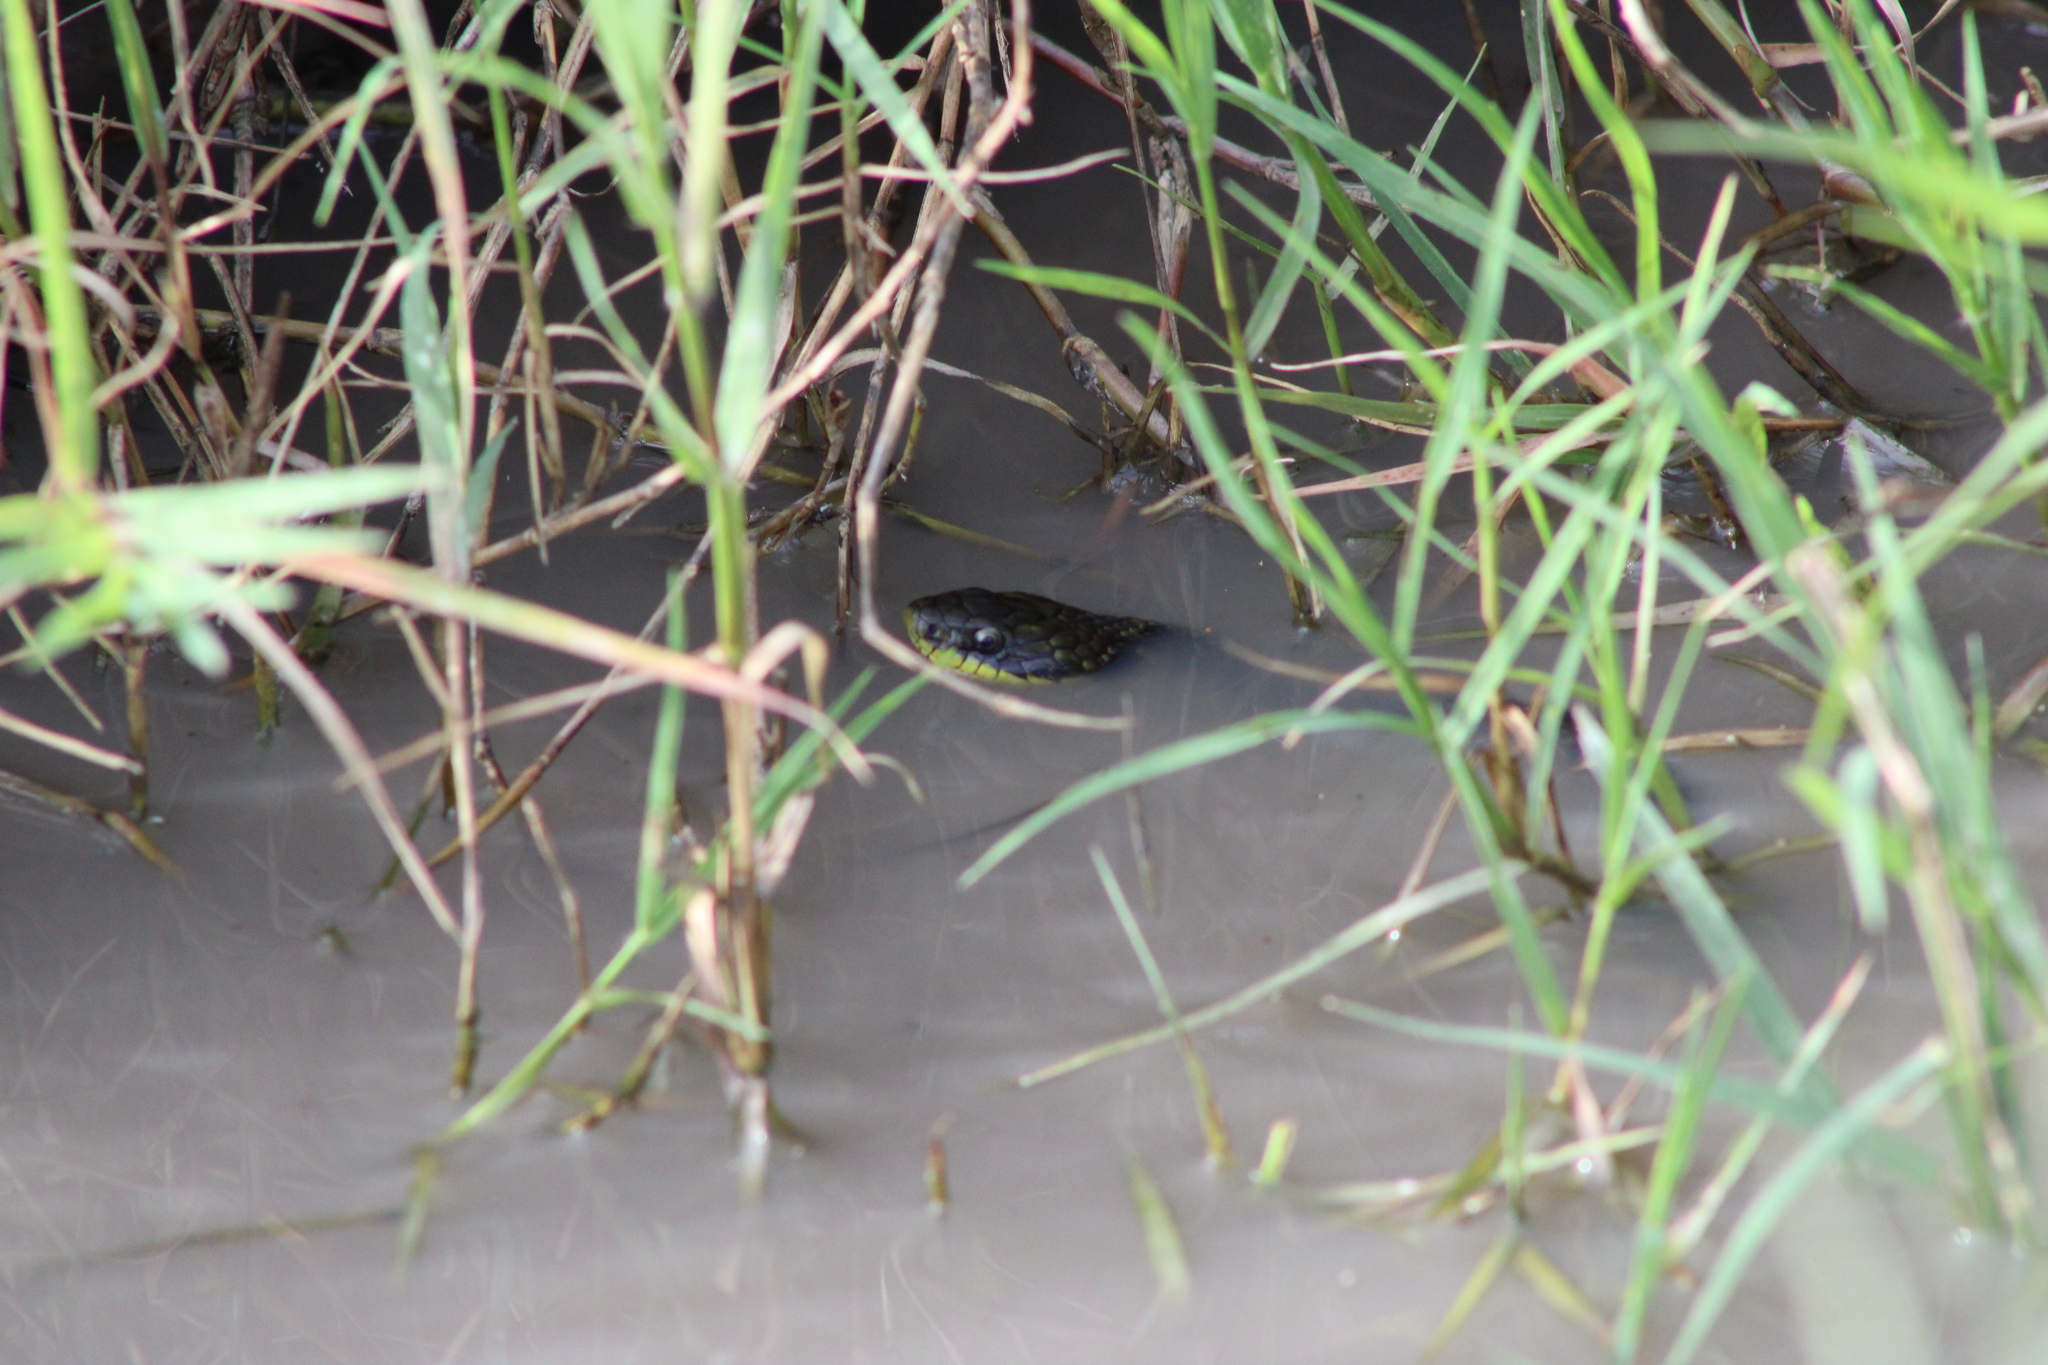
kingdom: Animalia
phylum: Chordata
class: Squamata
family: Colubridae
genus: Erythrolamprus
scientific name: Erythrolamprus poecilogyrus
